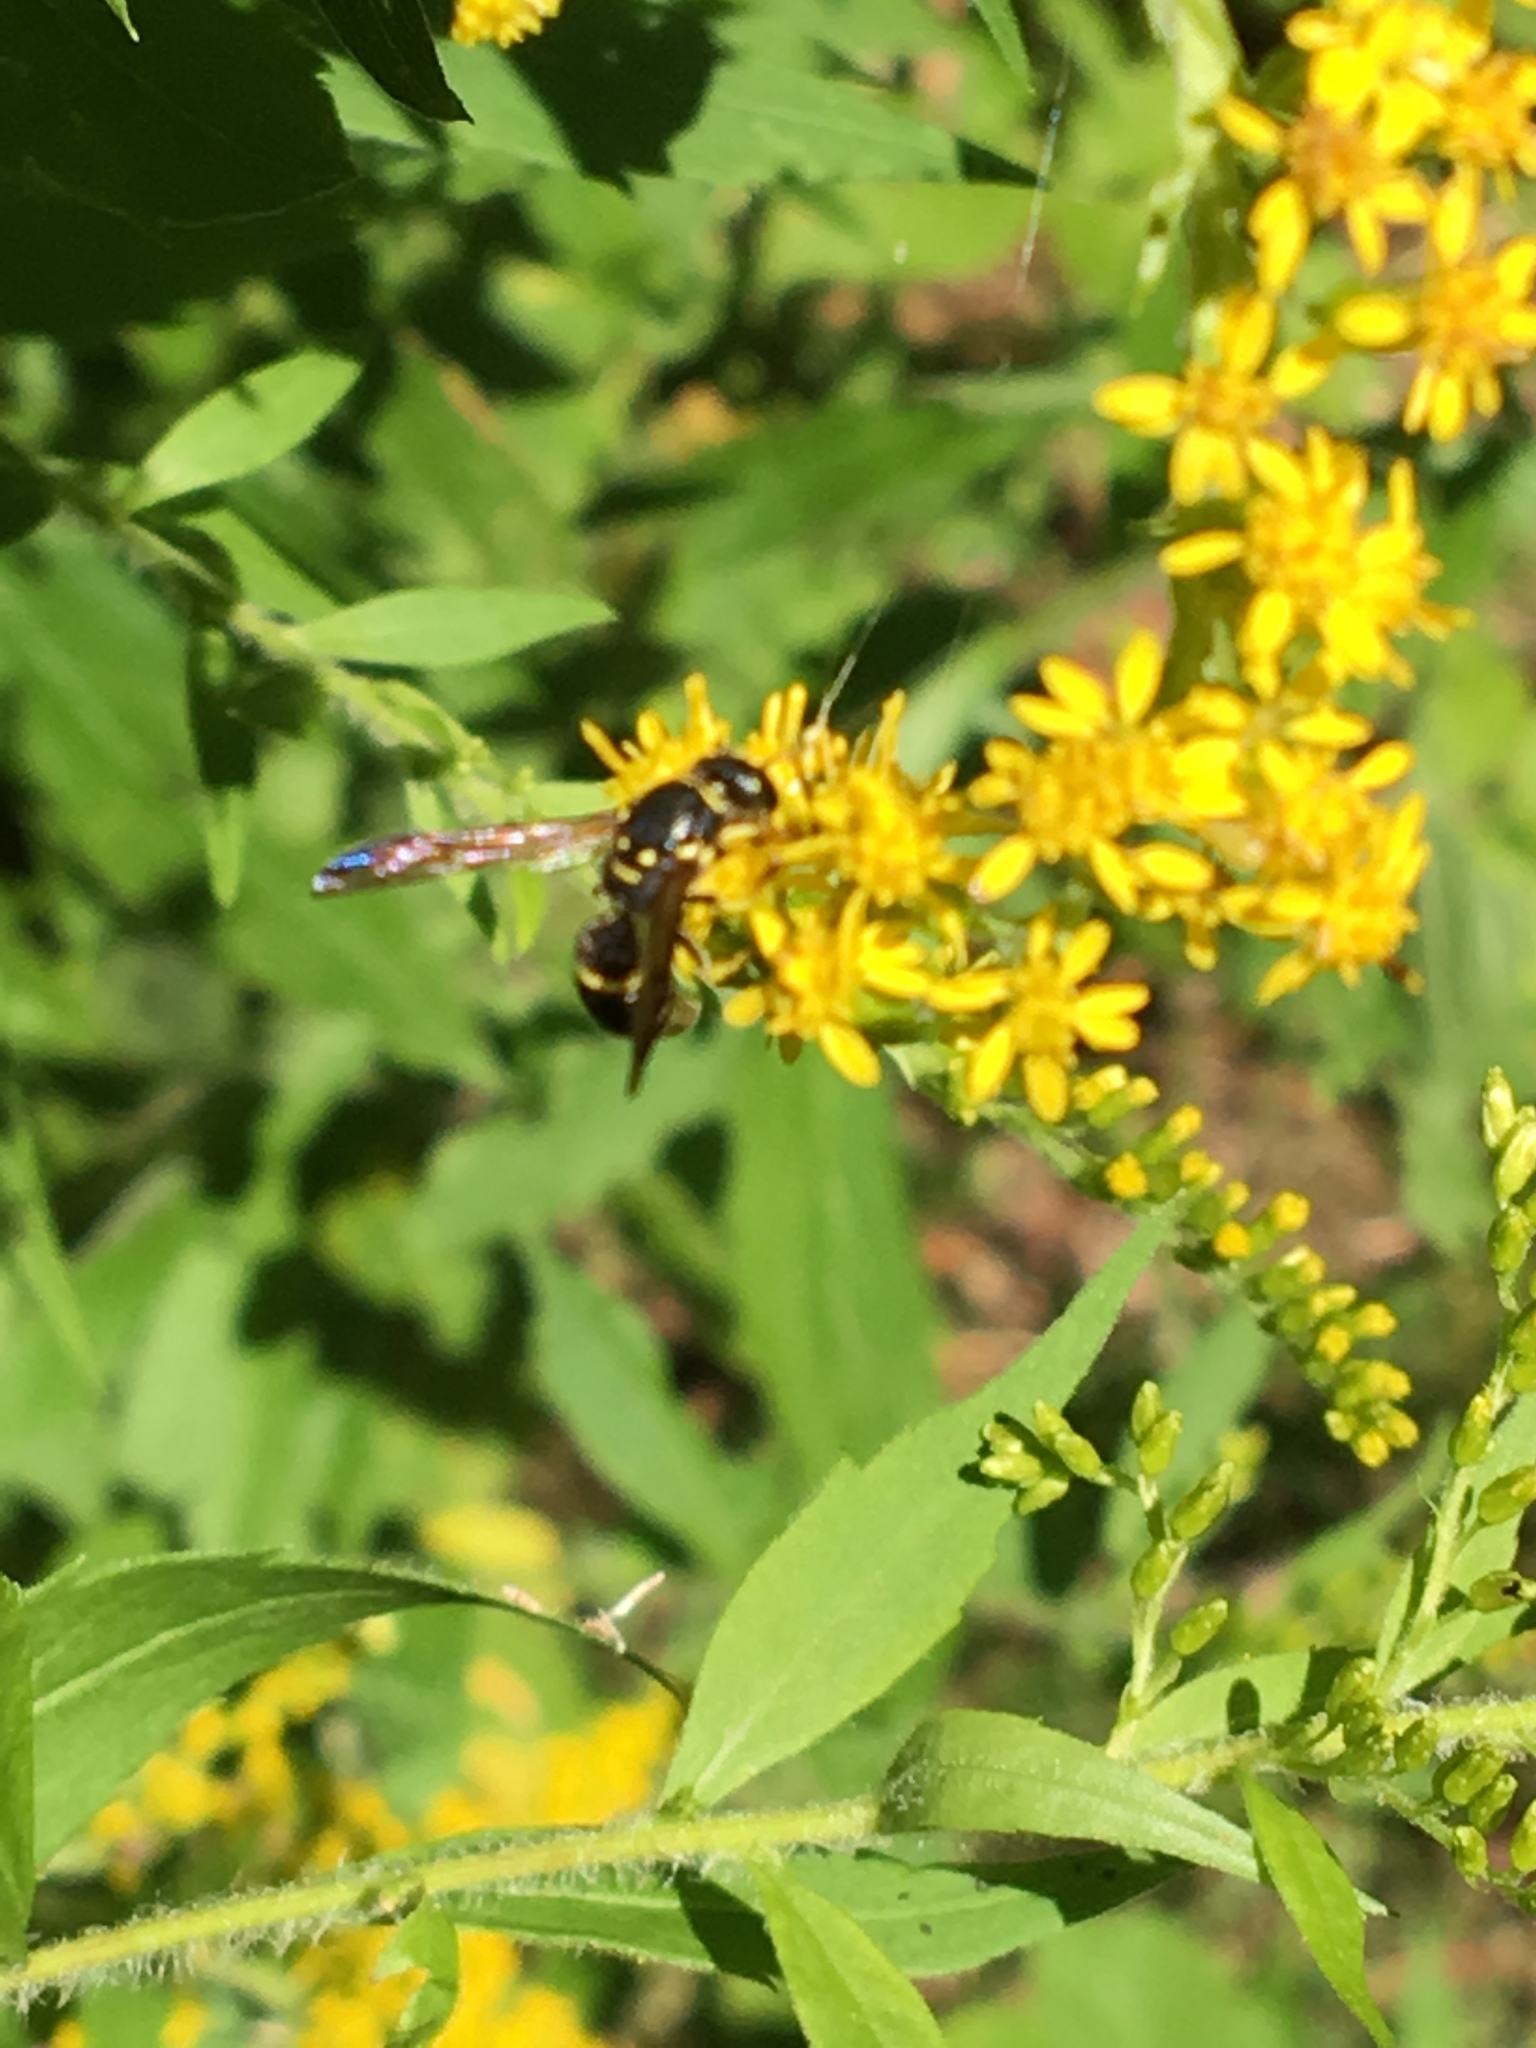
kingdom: Animalia
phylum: Arthropoda
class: Insecta
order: Hymenoptera
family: Vespidae
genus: Ancistrocerus
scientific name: Ancistrocerus adiabatus
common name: Bramble mason wasp
